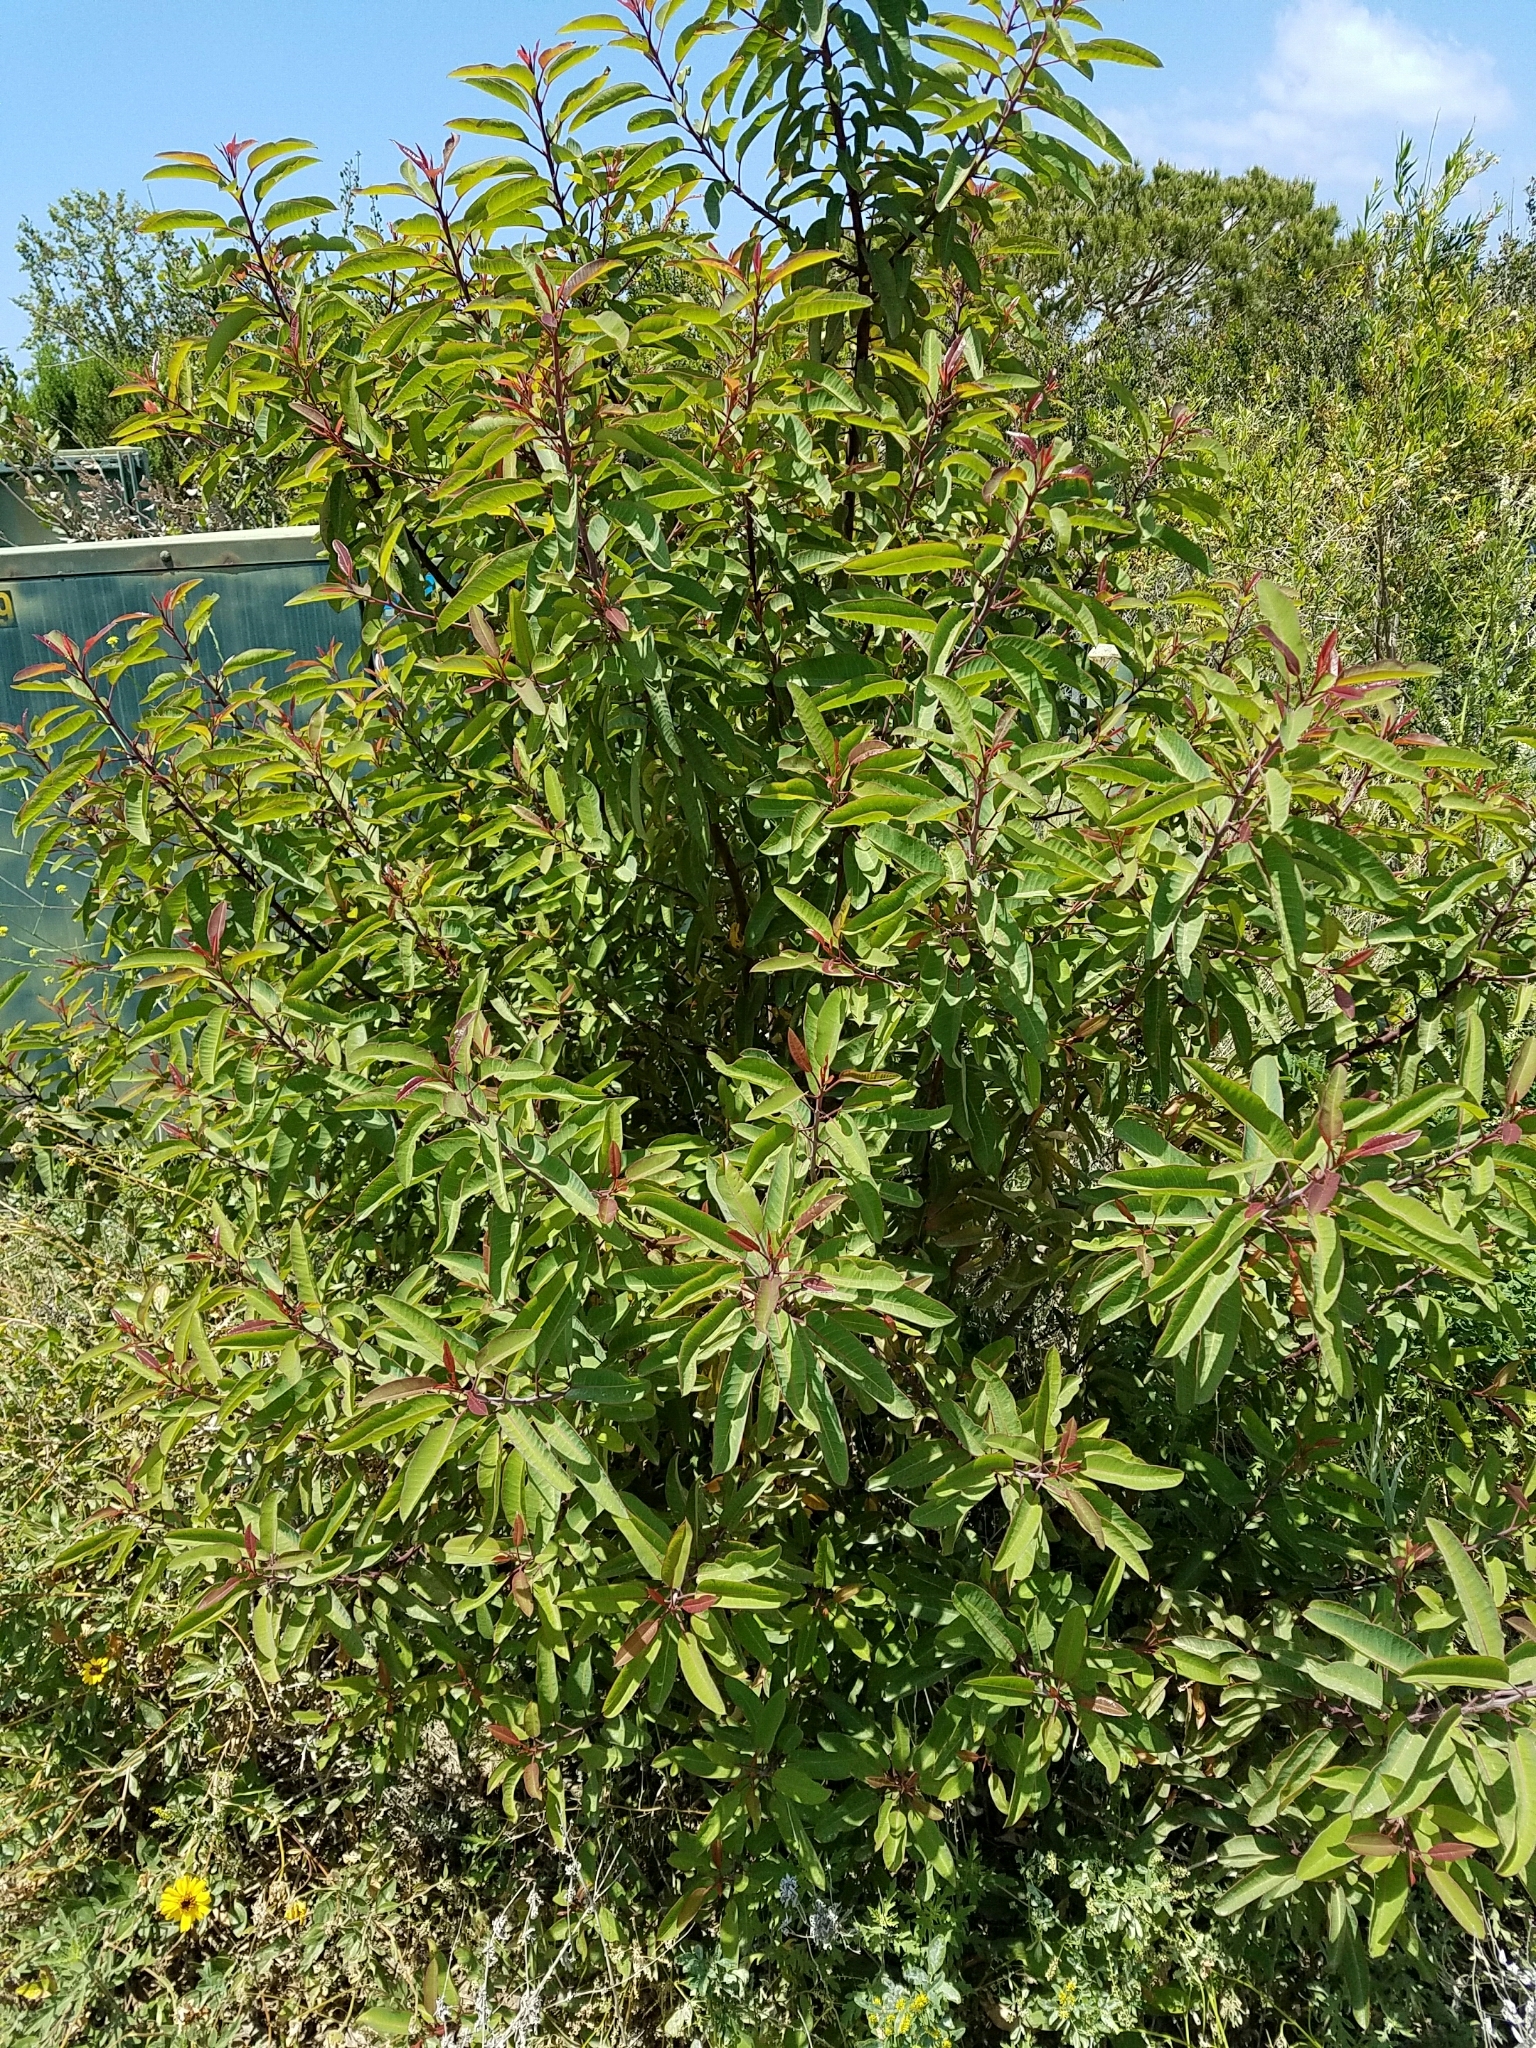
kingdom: Plantae
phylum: Tracheophyta
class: Magnoliopsida
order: Sapindales
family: Anacardiaceae
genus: Malosma
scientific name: Malosma laurina
